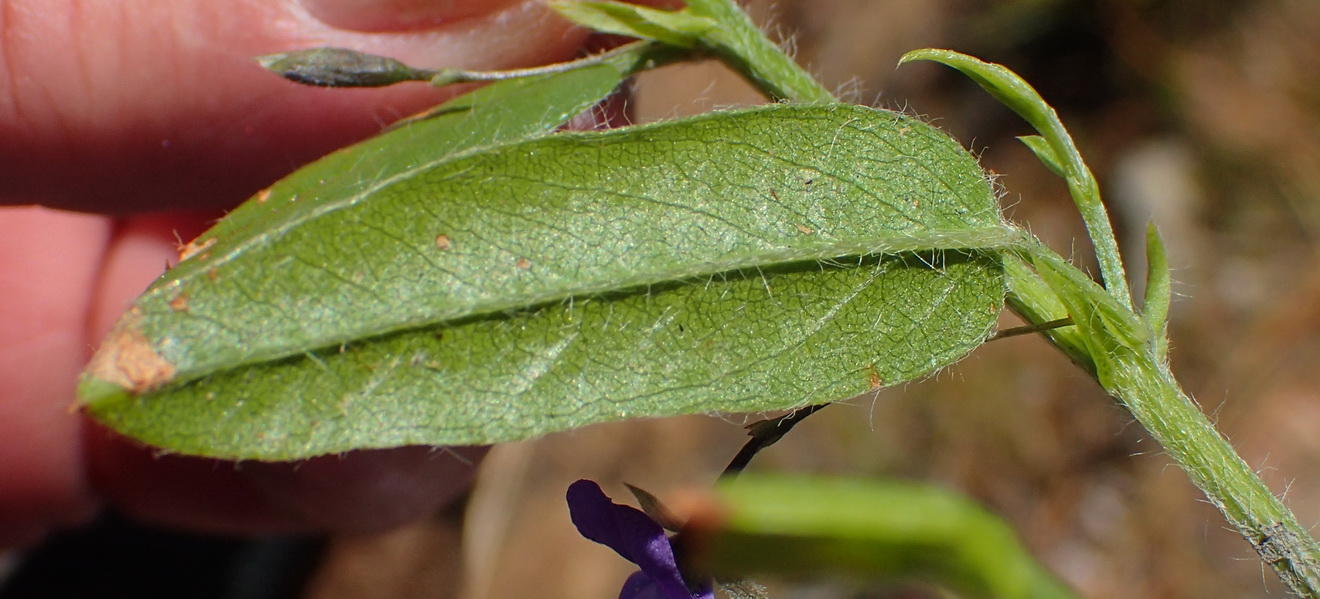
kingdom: Plantae
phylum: Tracheophyta
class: Magnoliopsida
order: Fabales
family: Fabaceae
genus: Psoralea
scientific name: Psoralea plauta
